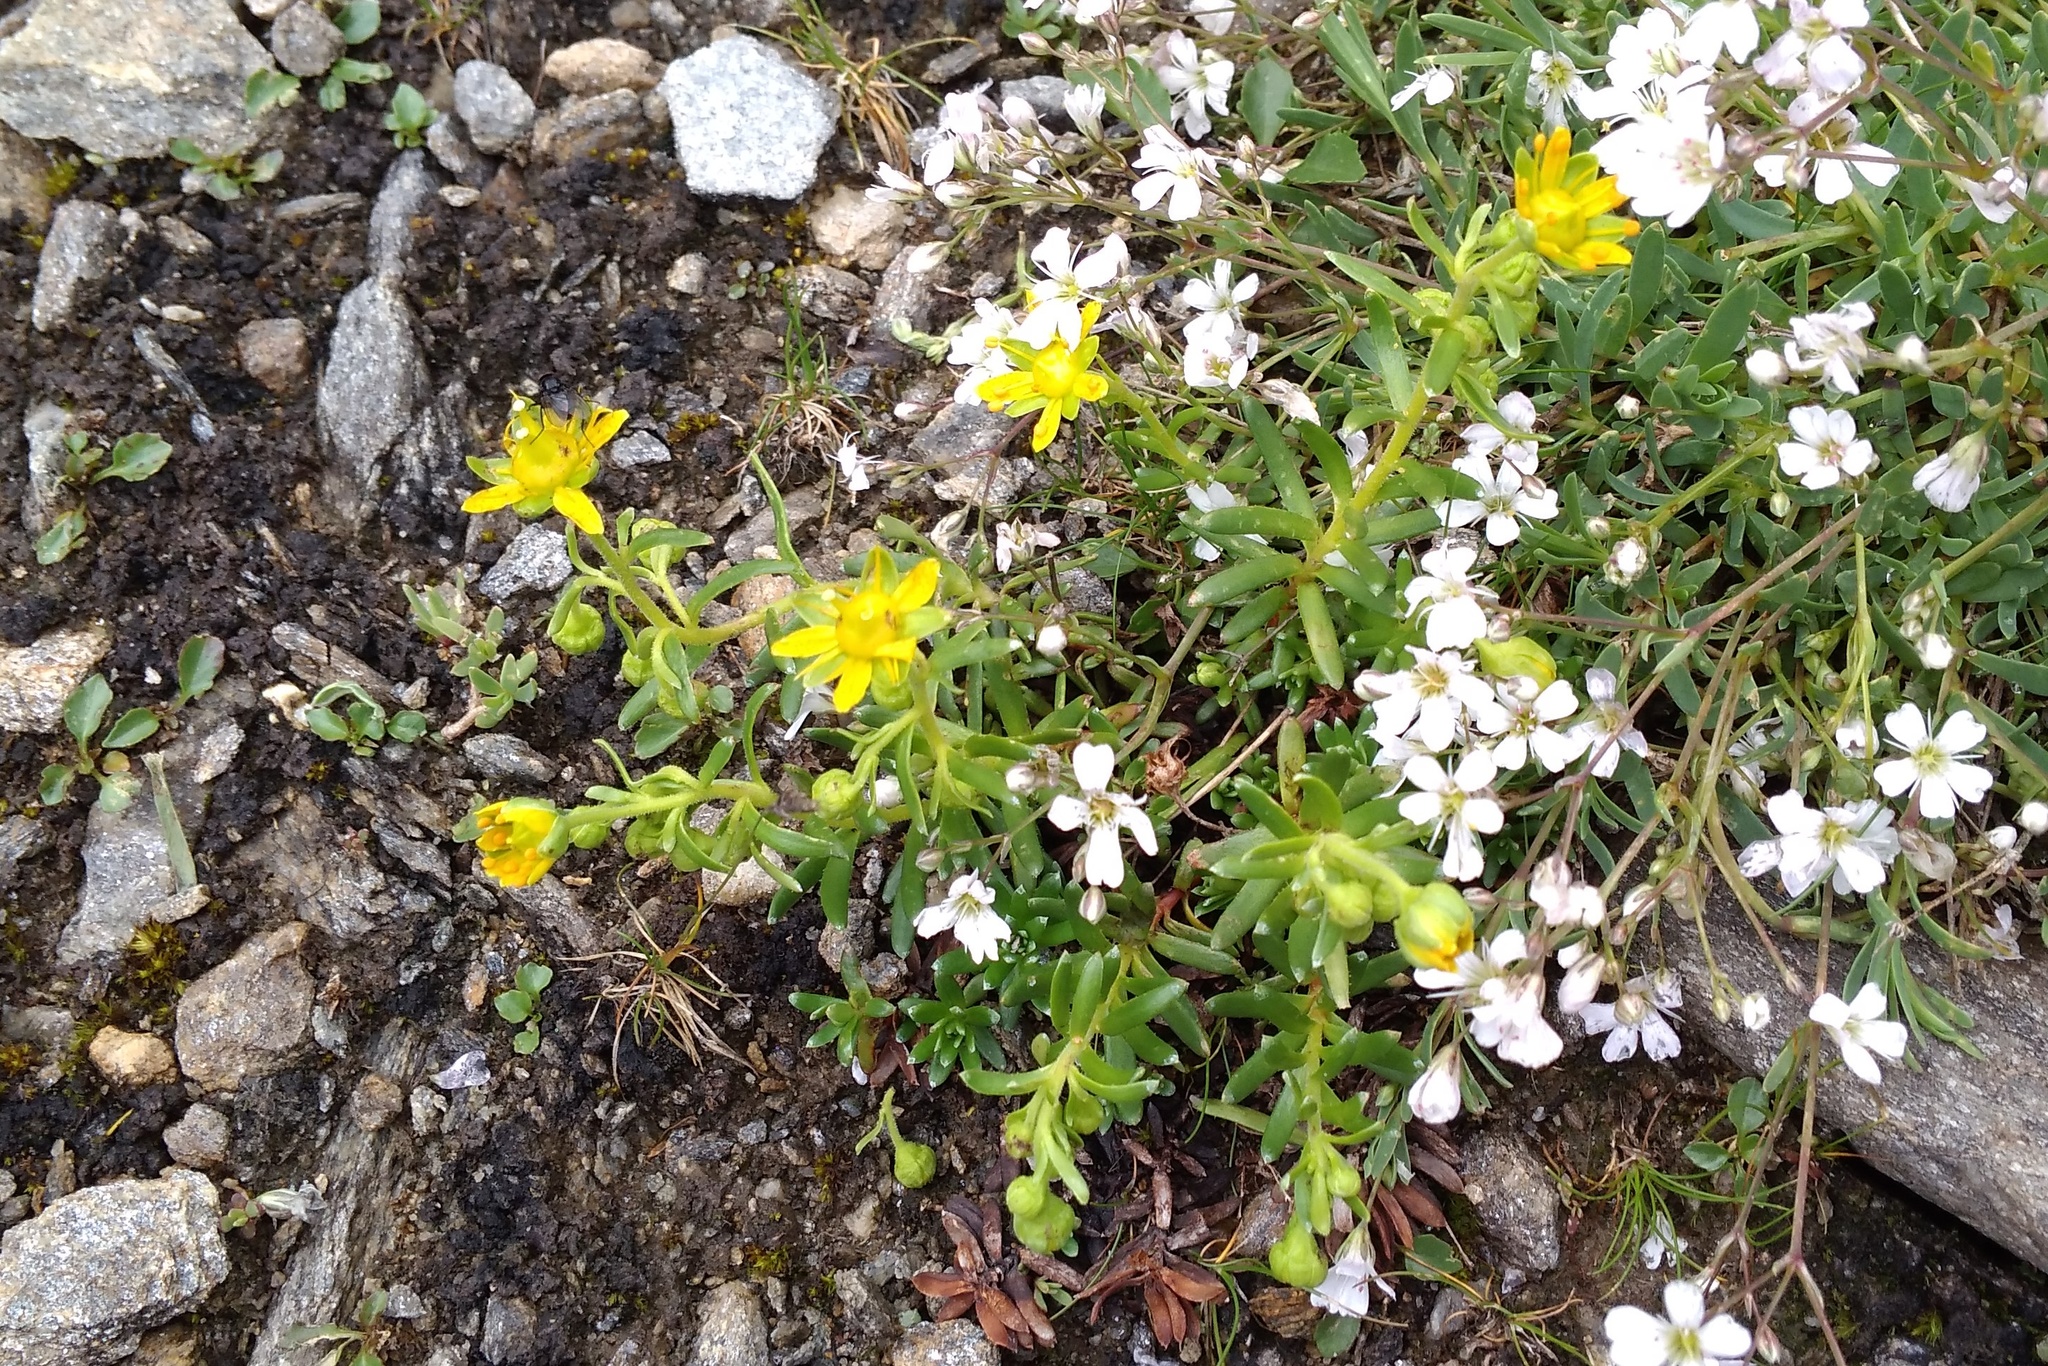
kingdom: Plantae
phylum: Tracheophyta
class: Magnoliopsida
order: Saxifragales
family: Saxifragaceae
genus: Saxifraga
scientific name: Saxifraga aizoides
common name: Yellow mountain saxifrage
